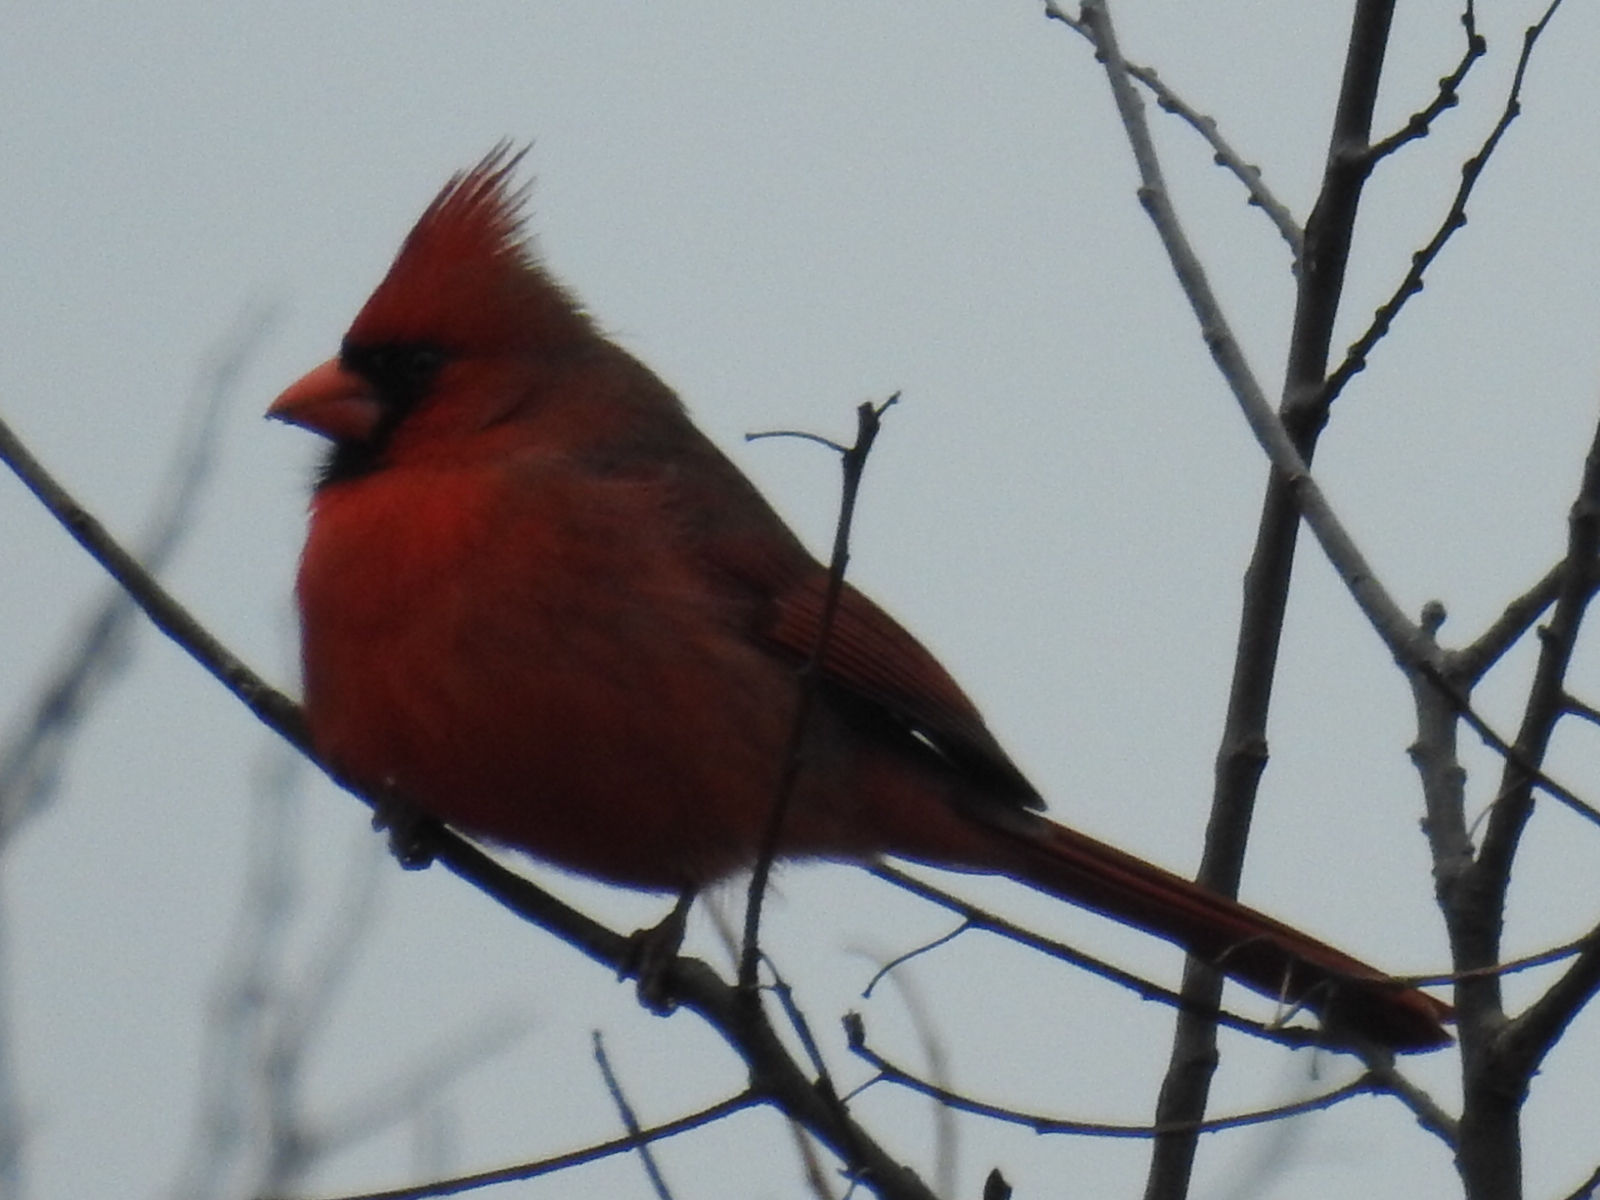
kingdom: Animalia
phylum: Chordata
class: Aves
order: Passeriformes
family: Cardinalidae
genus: Cardinalis
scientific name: Cardinalis cardinalis
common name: Northern cardinal
